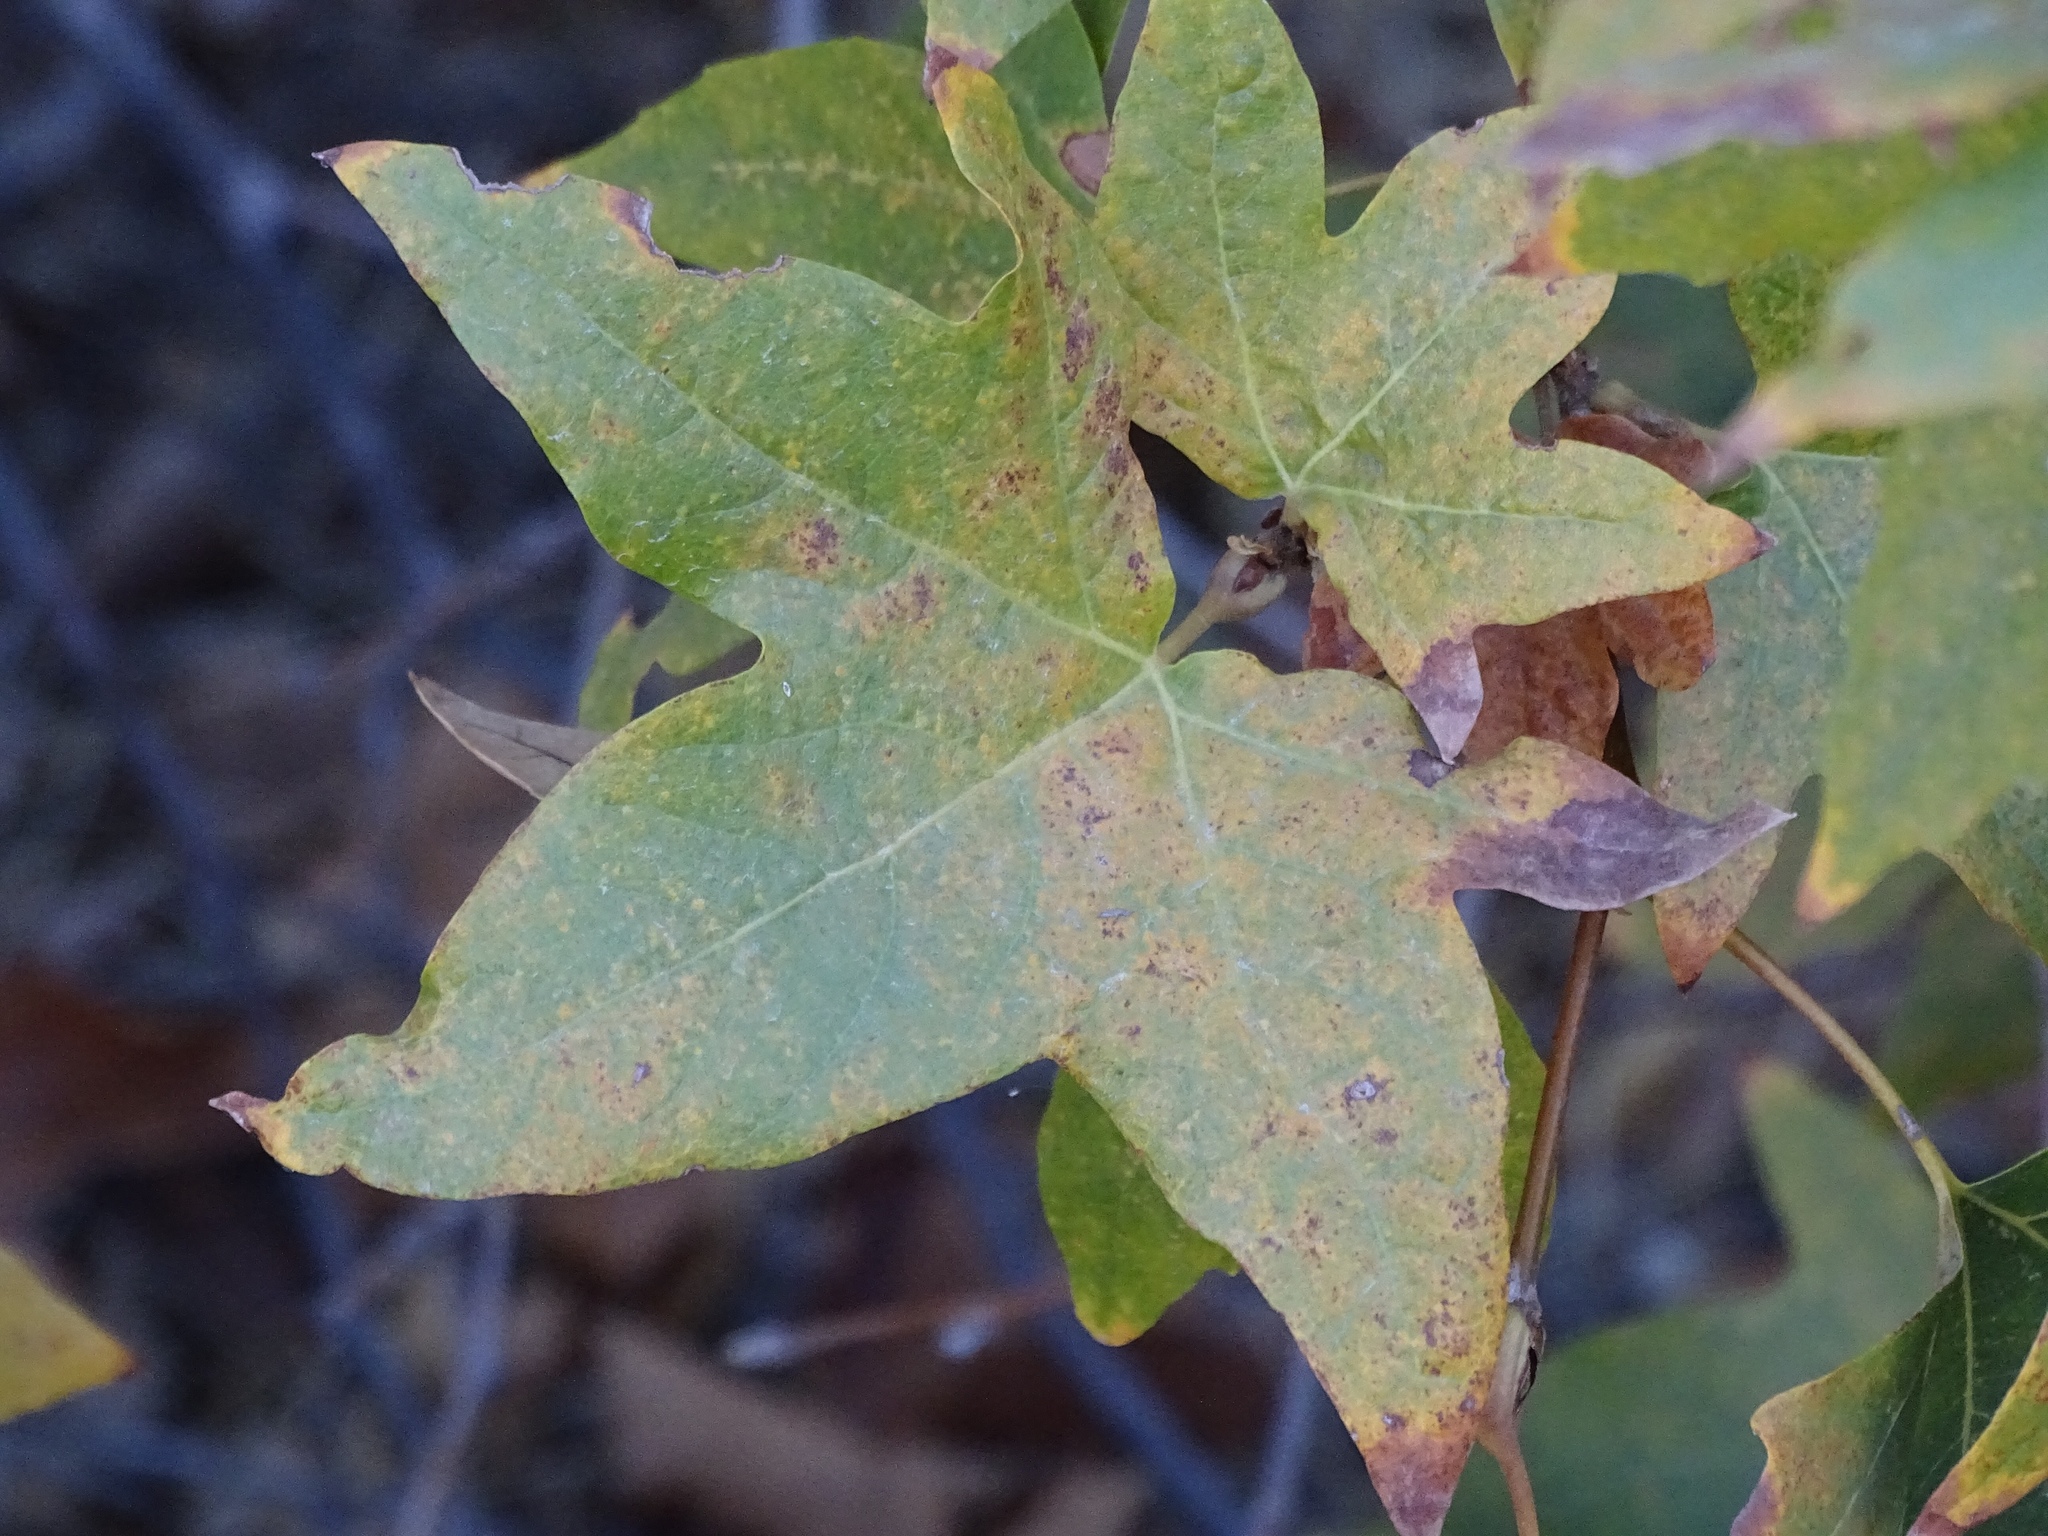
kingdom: Plantae
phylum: Tracheophyta
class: Magnoliopsida
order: Proteales
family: Platanaceae
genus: Platanus
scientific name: Platanus racemosa
